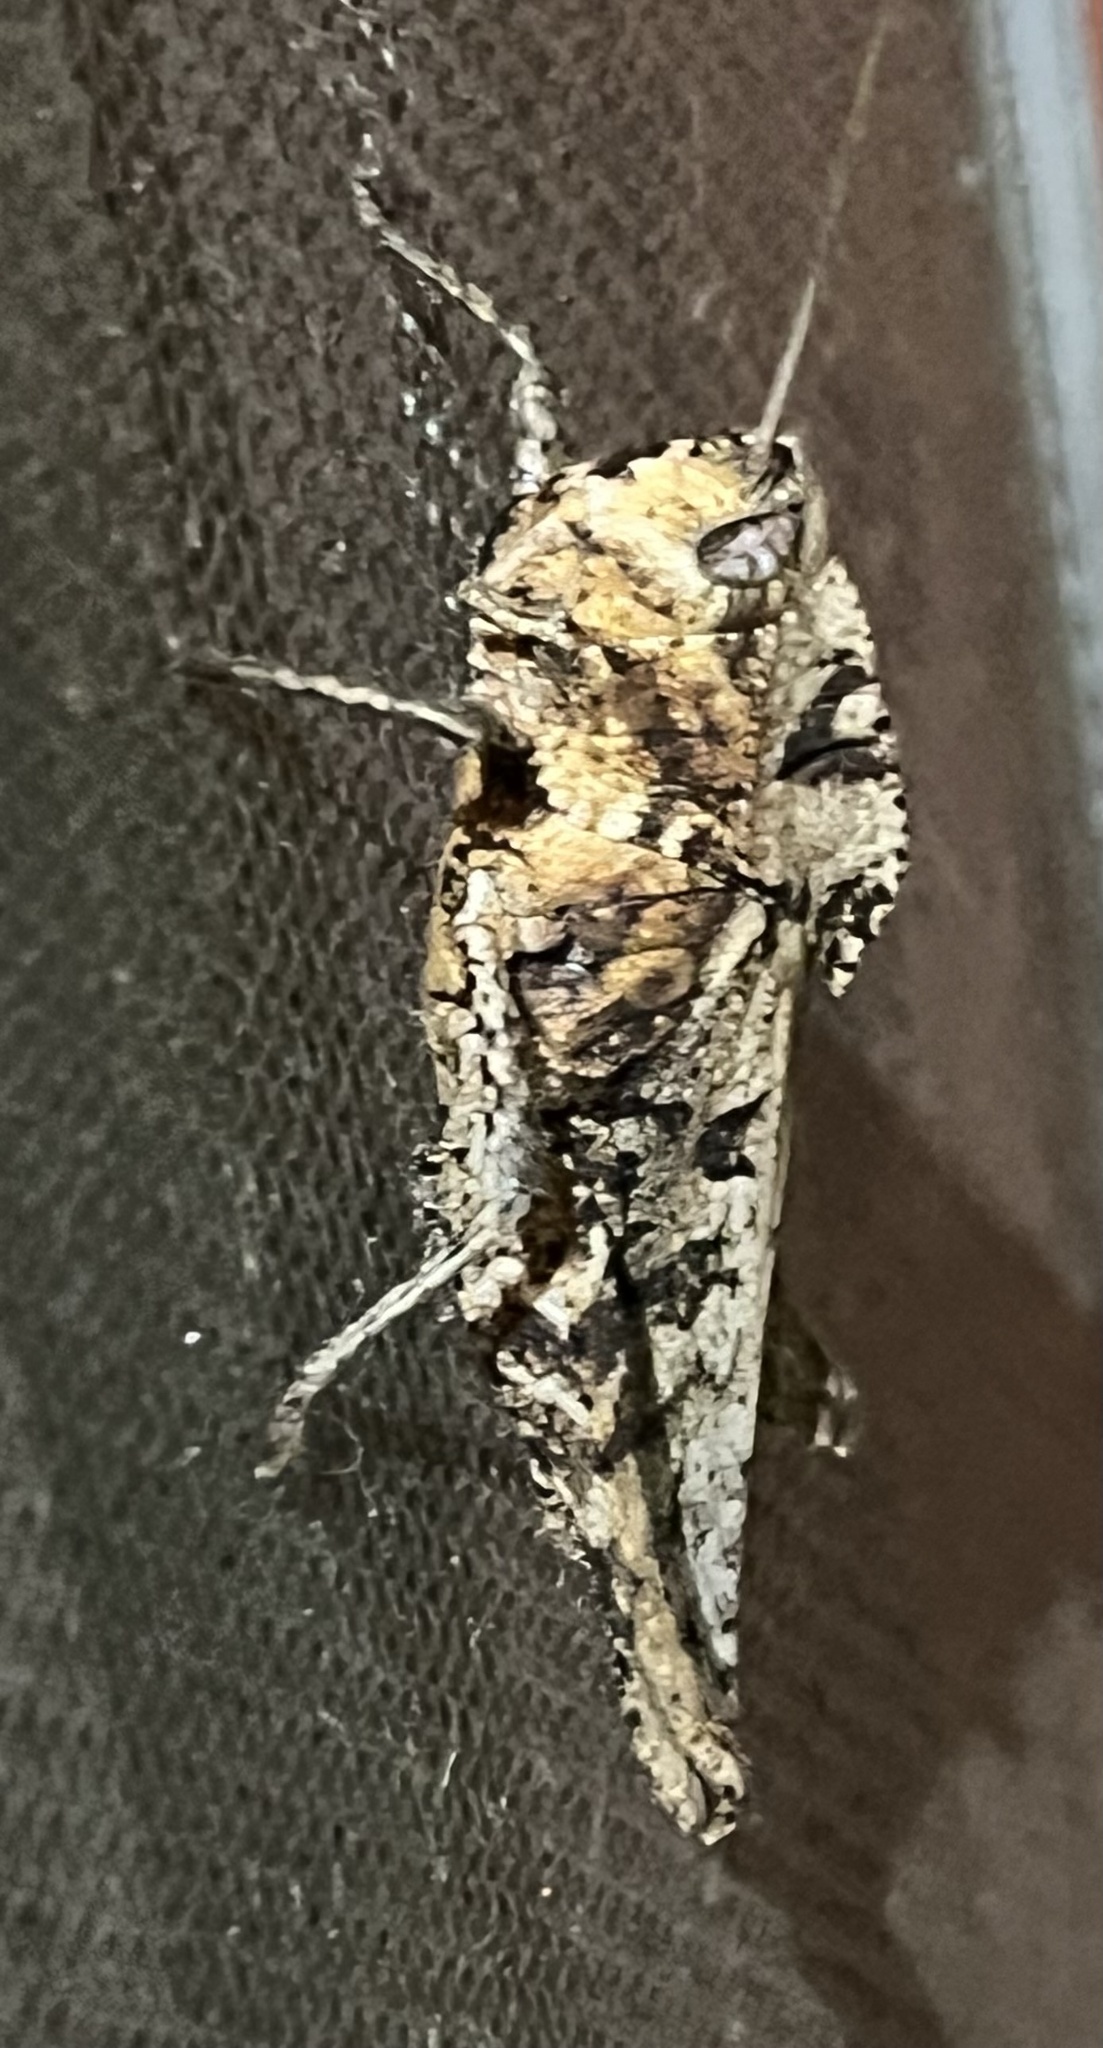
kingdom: Animalia
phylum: Arthropoda
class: Insecta
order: Orthoptera
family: Romaleidae
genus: Xyleus
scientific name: Xyleus discoideus
